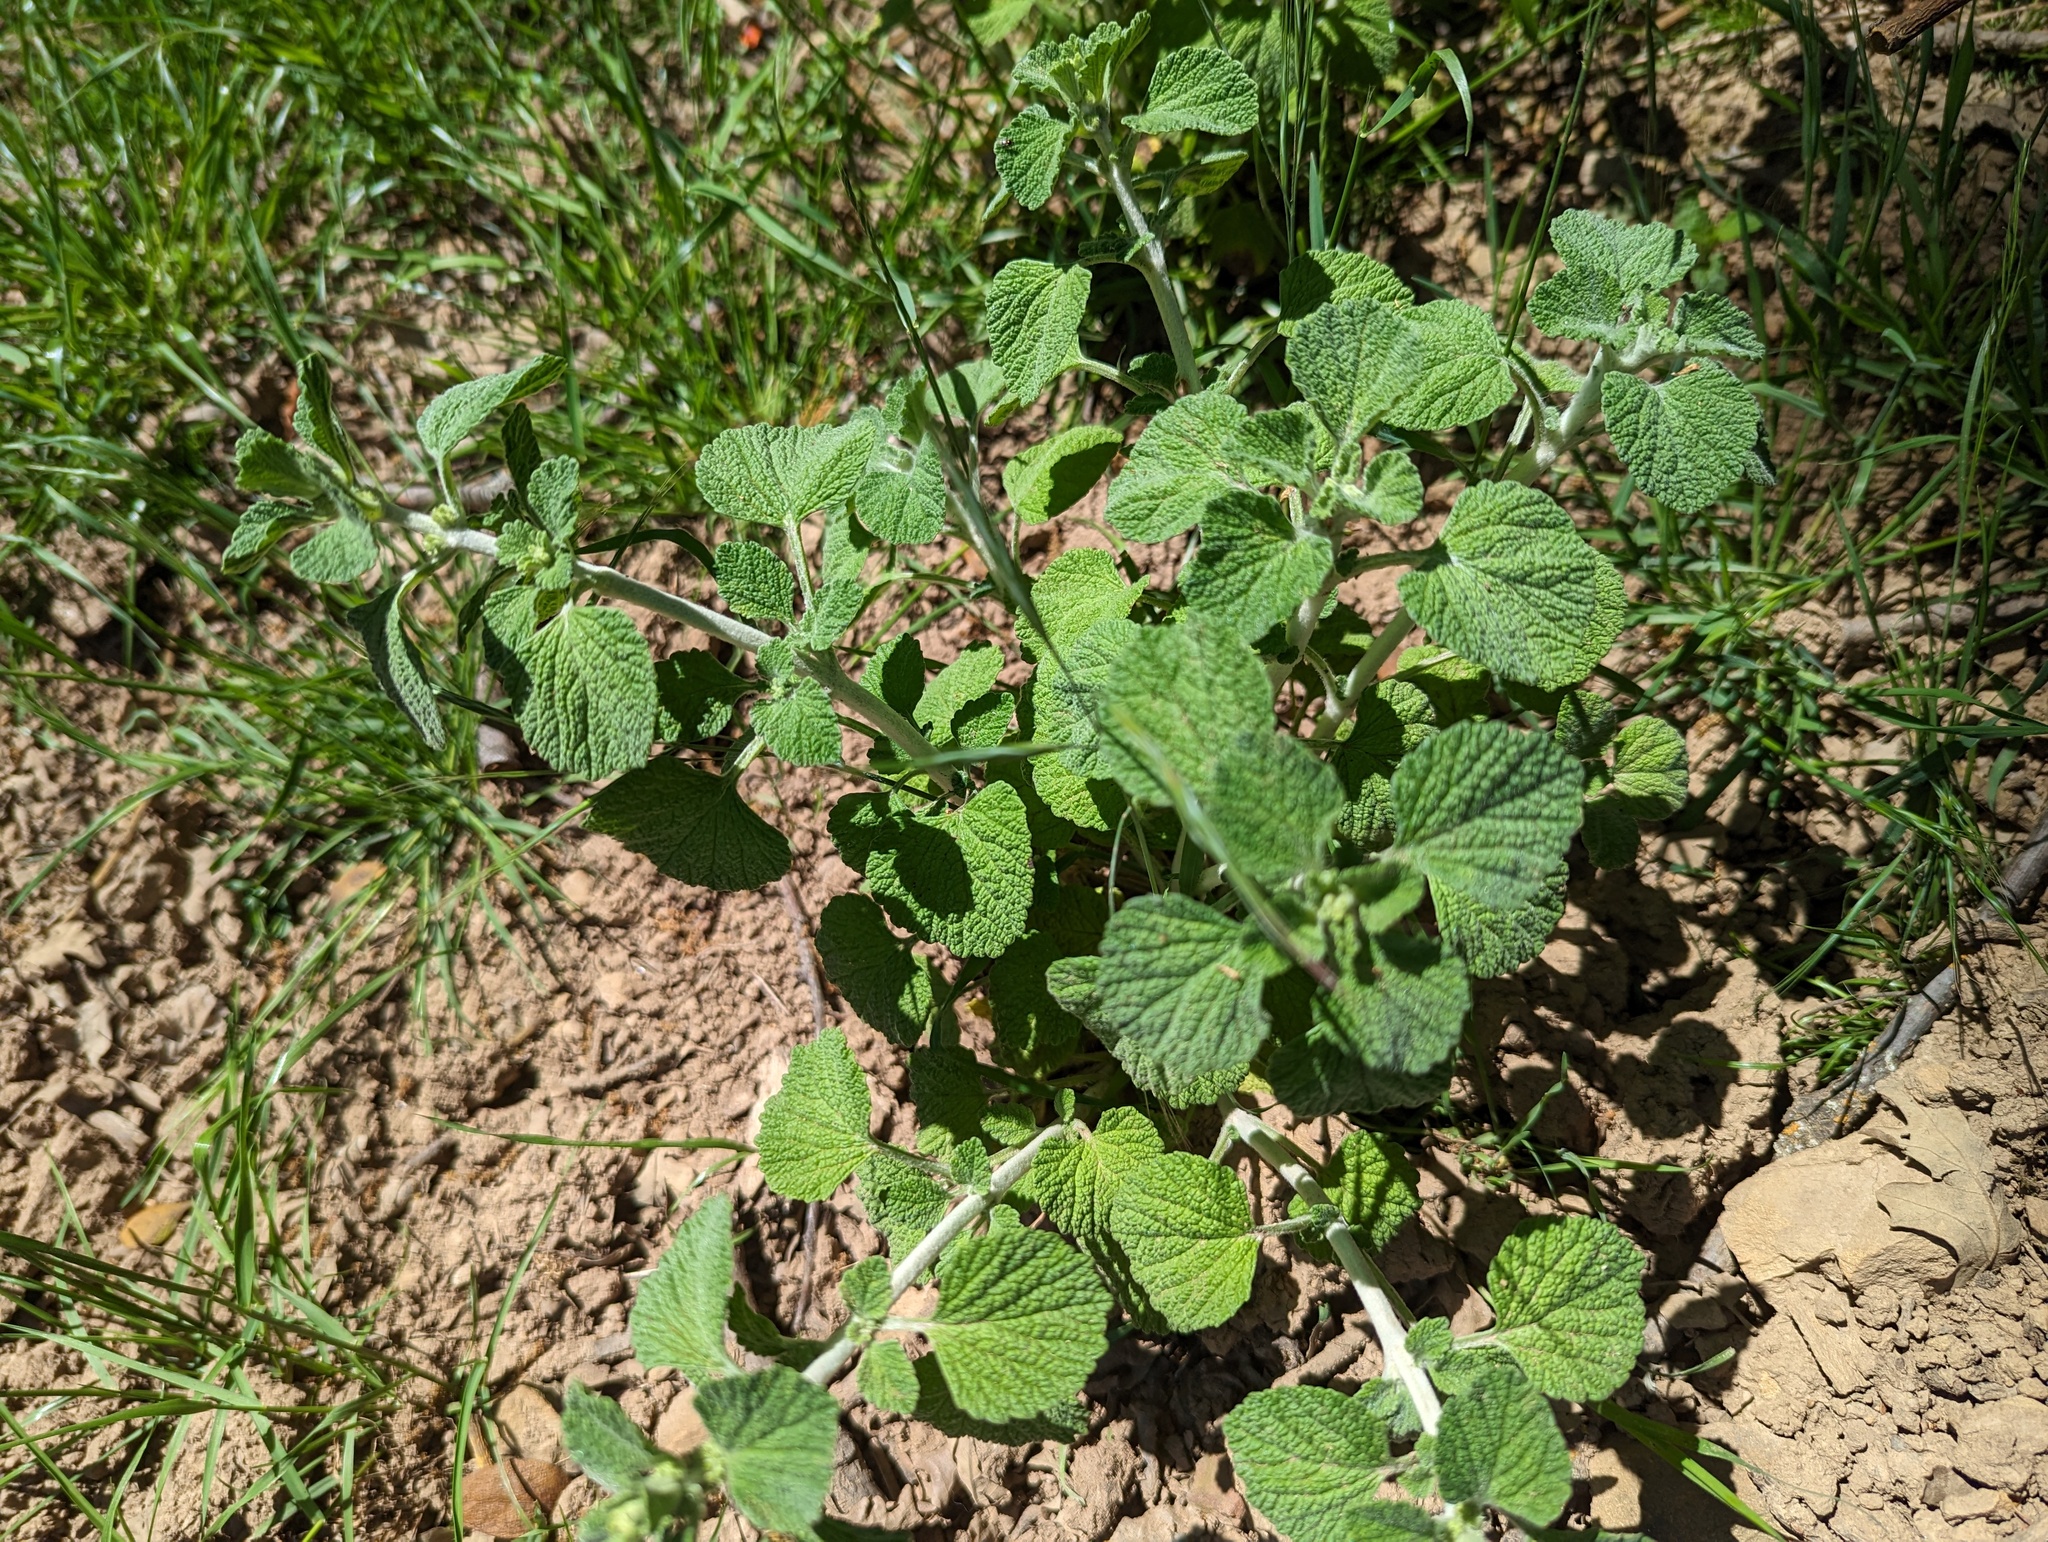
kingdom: Plantae
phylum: Tracheophyta
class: Magnoliopsida
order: Lamiales
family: Lamiaceae
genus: Marrubium
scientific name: Marrubium vulgare
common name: Horehound
